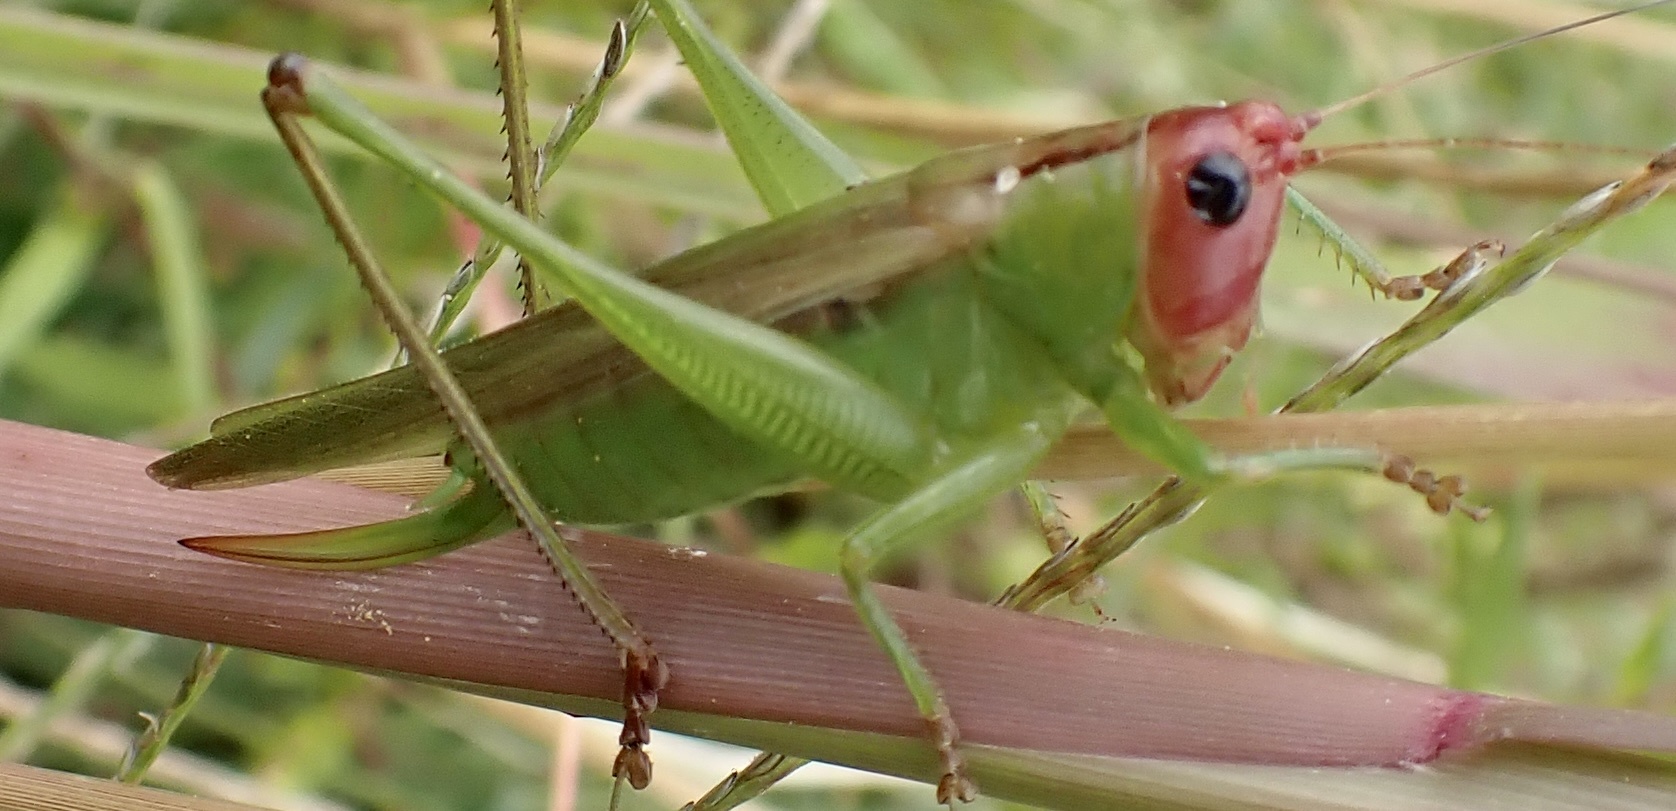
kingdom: Animalia
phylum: Arthropoda
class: Insecta
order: Orthoptera
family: Tettigoniidae
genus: Orchelimum
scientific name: Orchelimum erythrocephalum
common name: Red-headed meadow katydid
